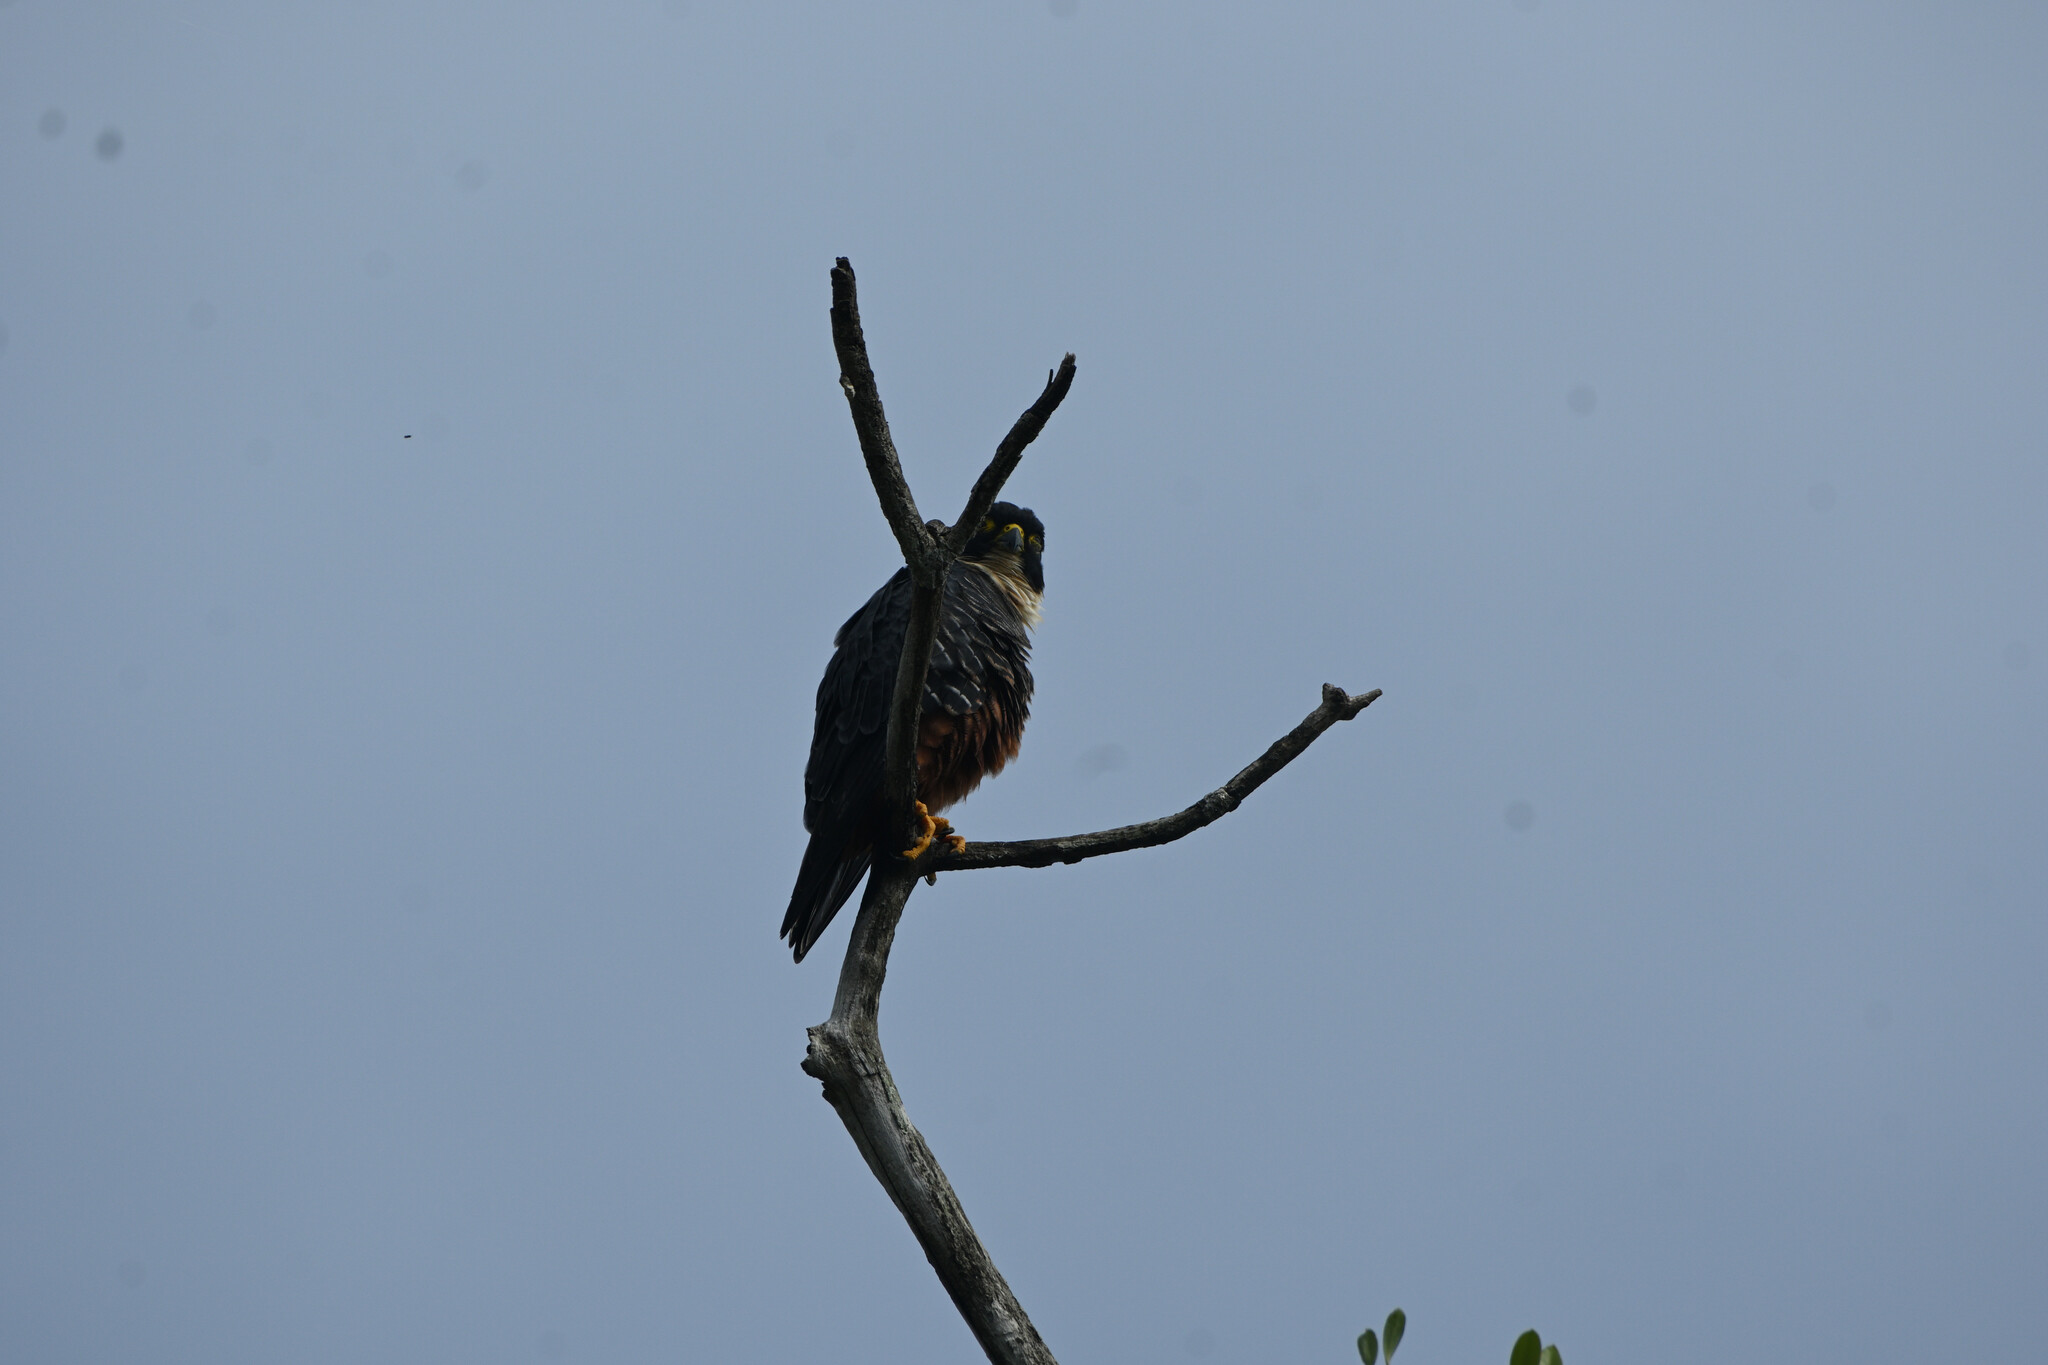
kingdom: Animalia
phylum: Chordata
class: Aves
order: Falconiformes
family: Falconidae
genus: Falco
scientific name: Falco rufigularis
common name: Bat falcon
